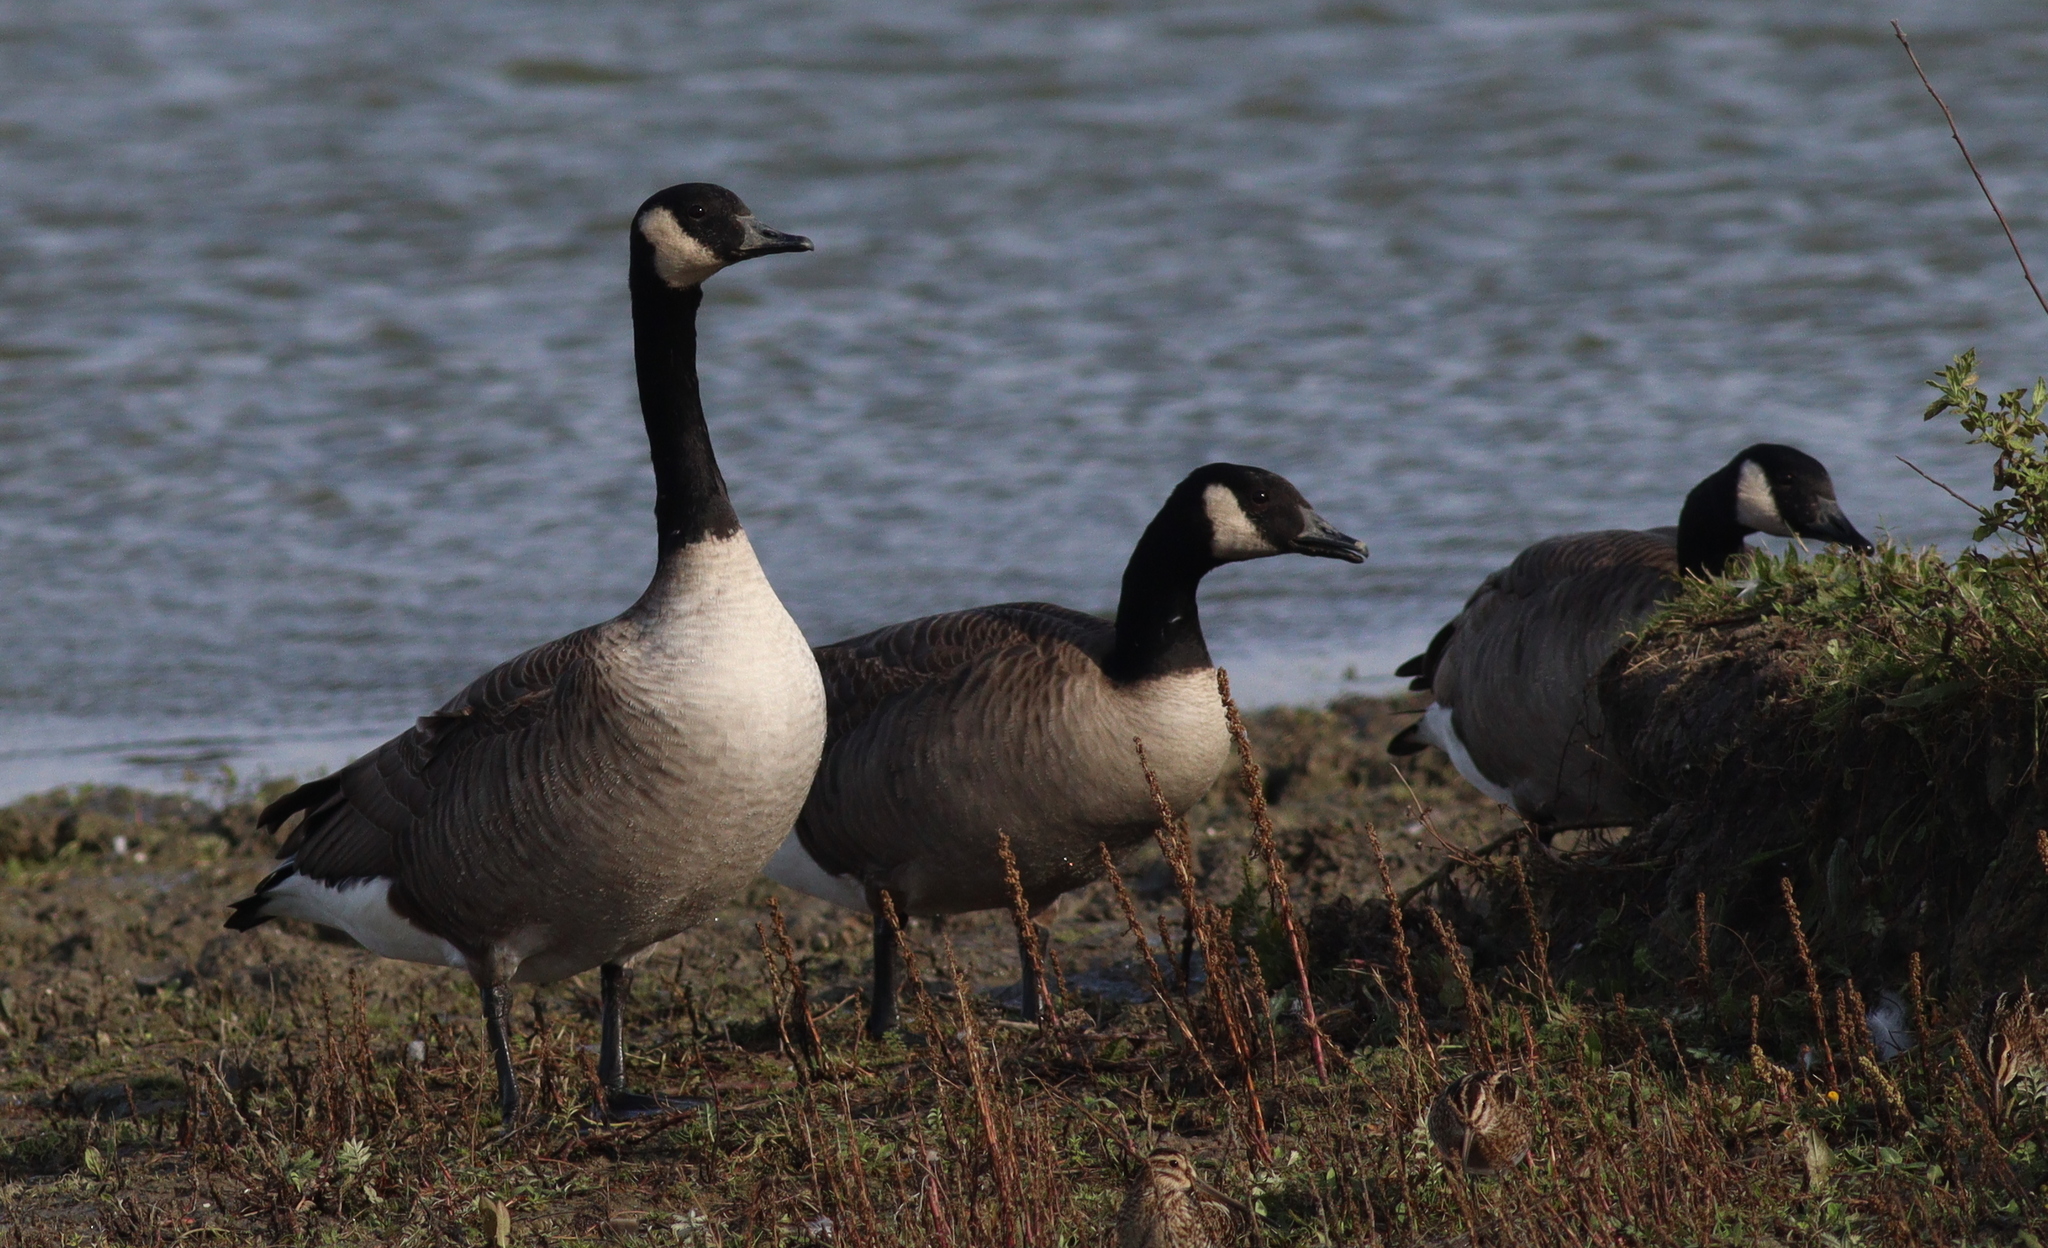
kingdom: Animalia
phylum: Chordata
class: Aves
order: Anseriformes
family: Anatidae
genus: Branta
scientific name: Branta canadensis
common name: Canada goose
